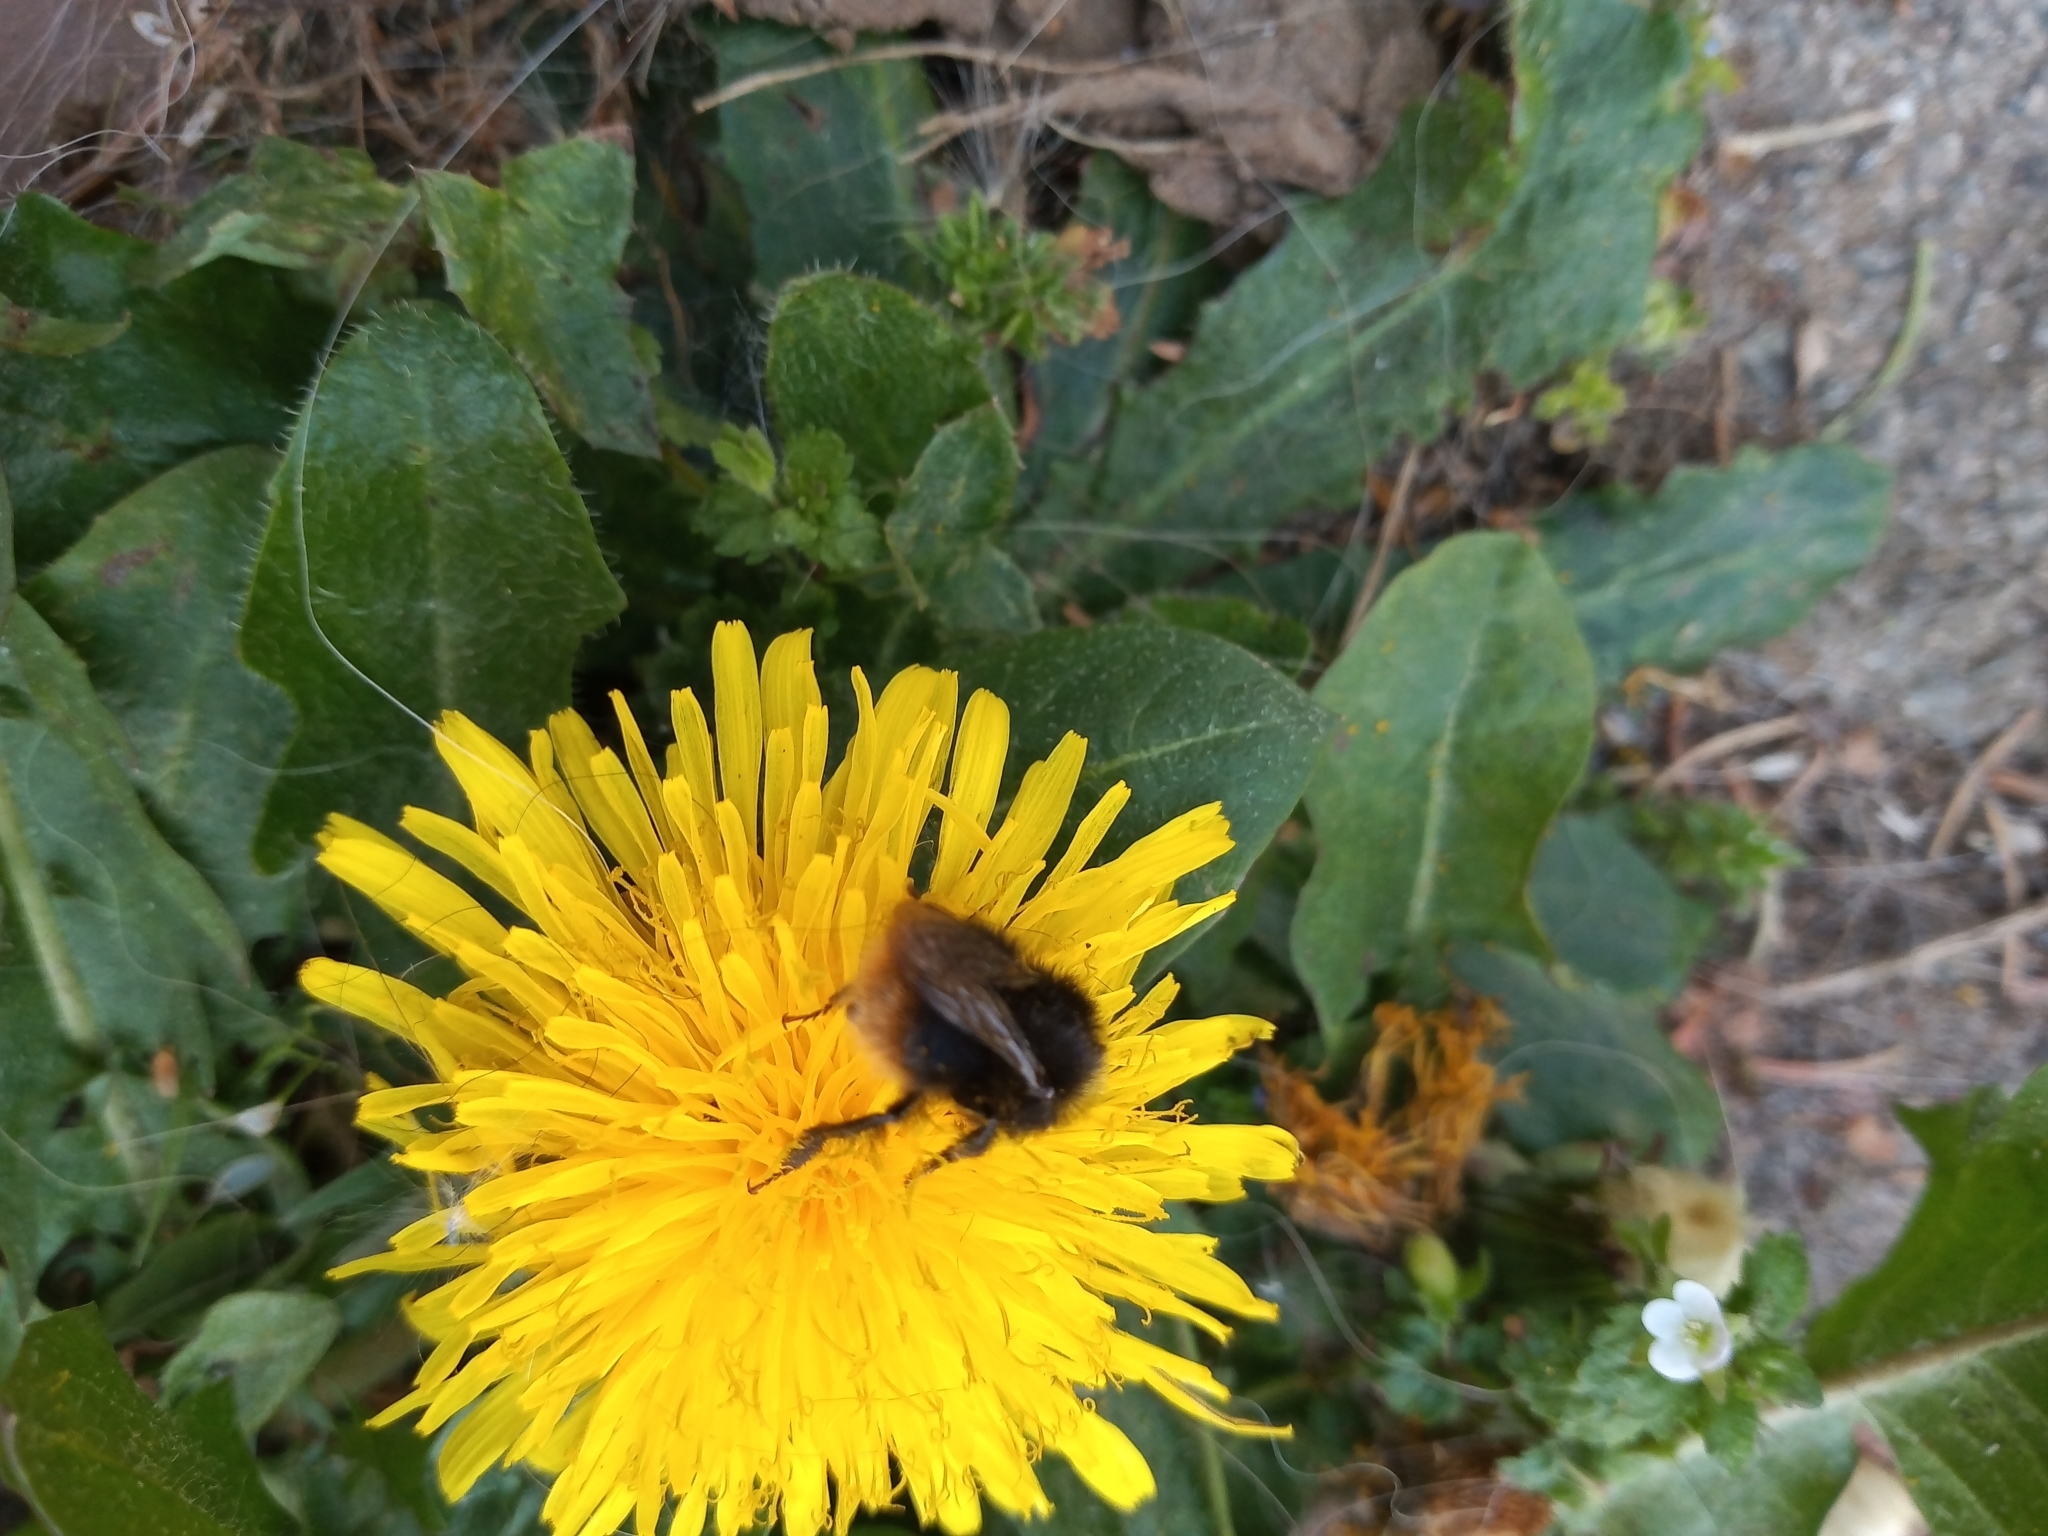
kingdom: Animalia
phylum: Arthropoda
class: Insecta
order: Hymenoptera
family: Apidae
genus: Bombus
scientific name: Bombus pratorum
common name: Early humble-bee
